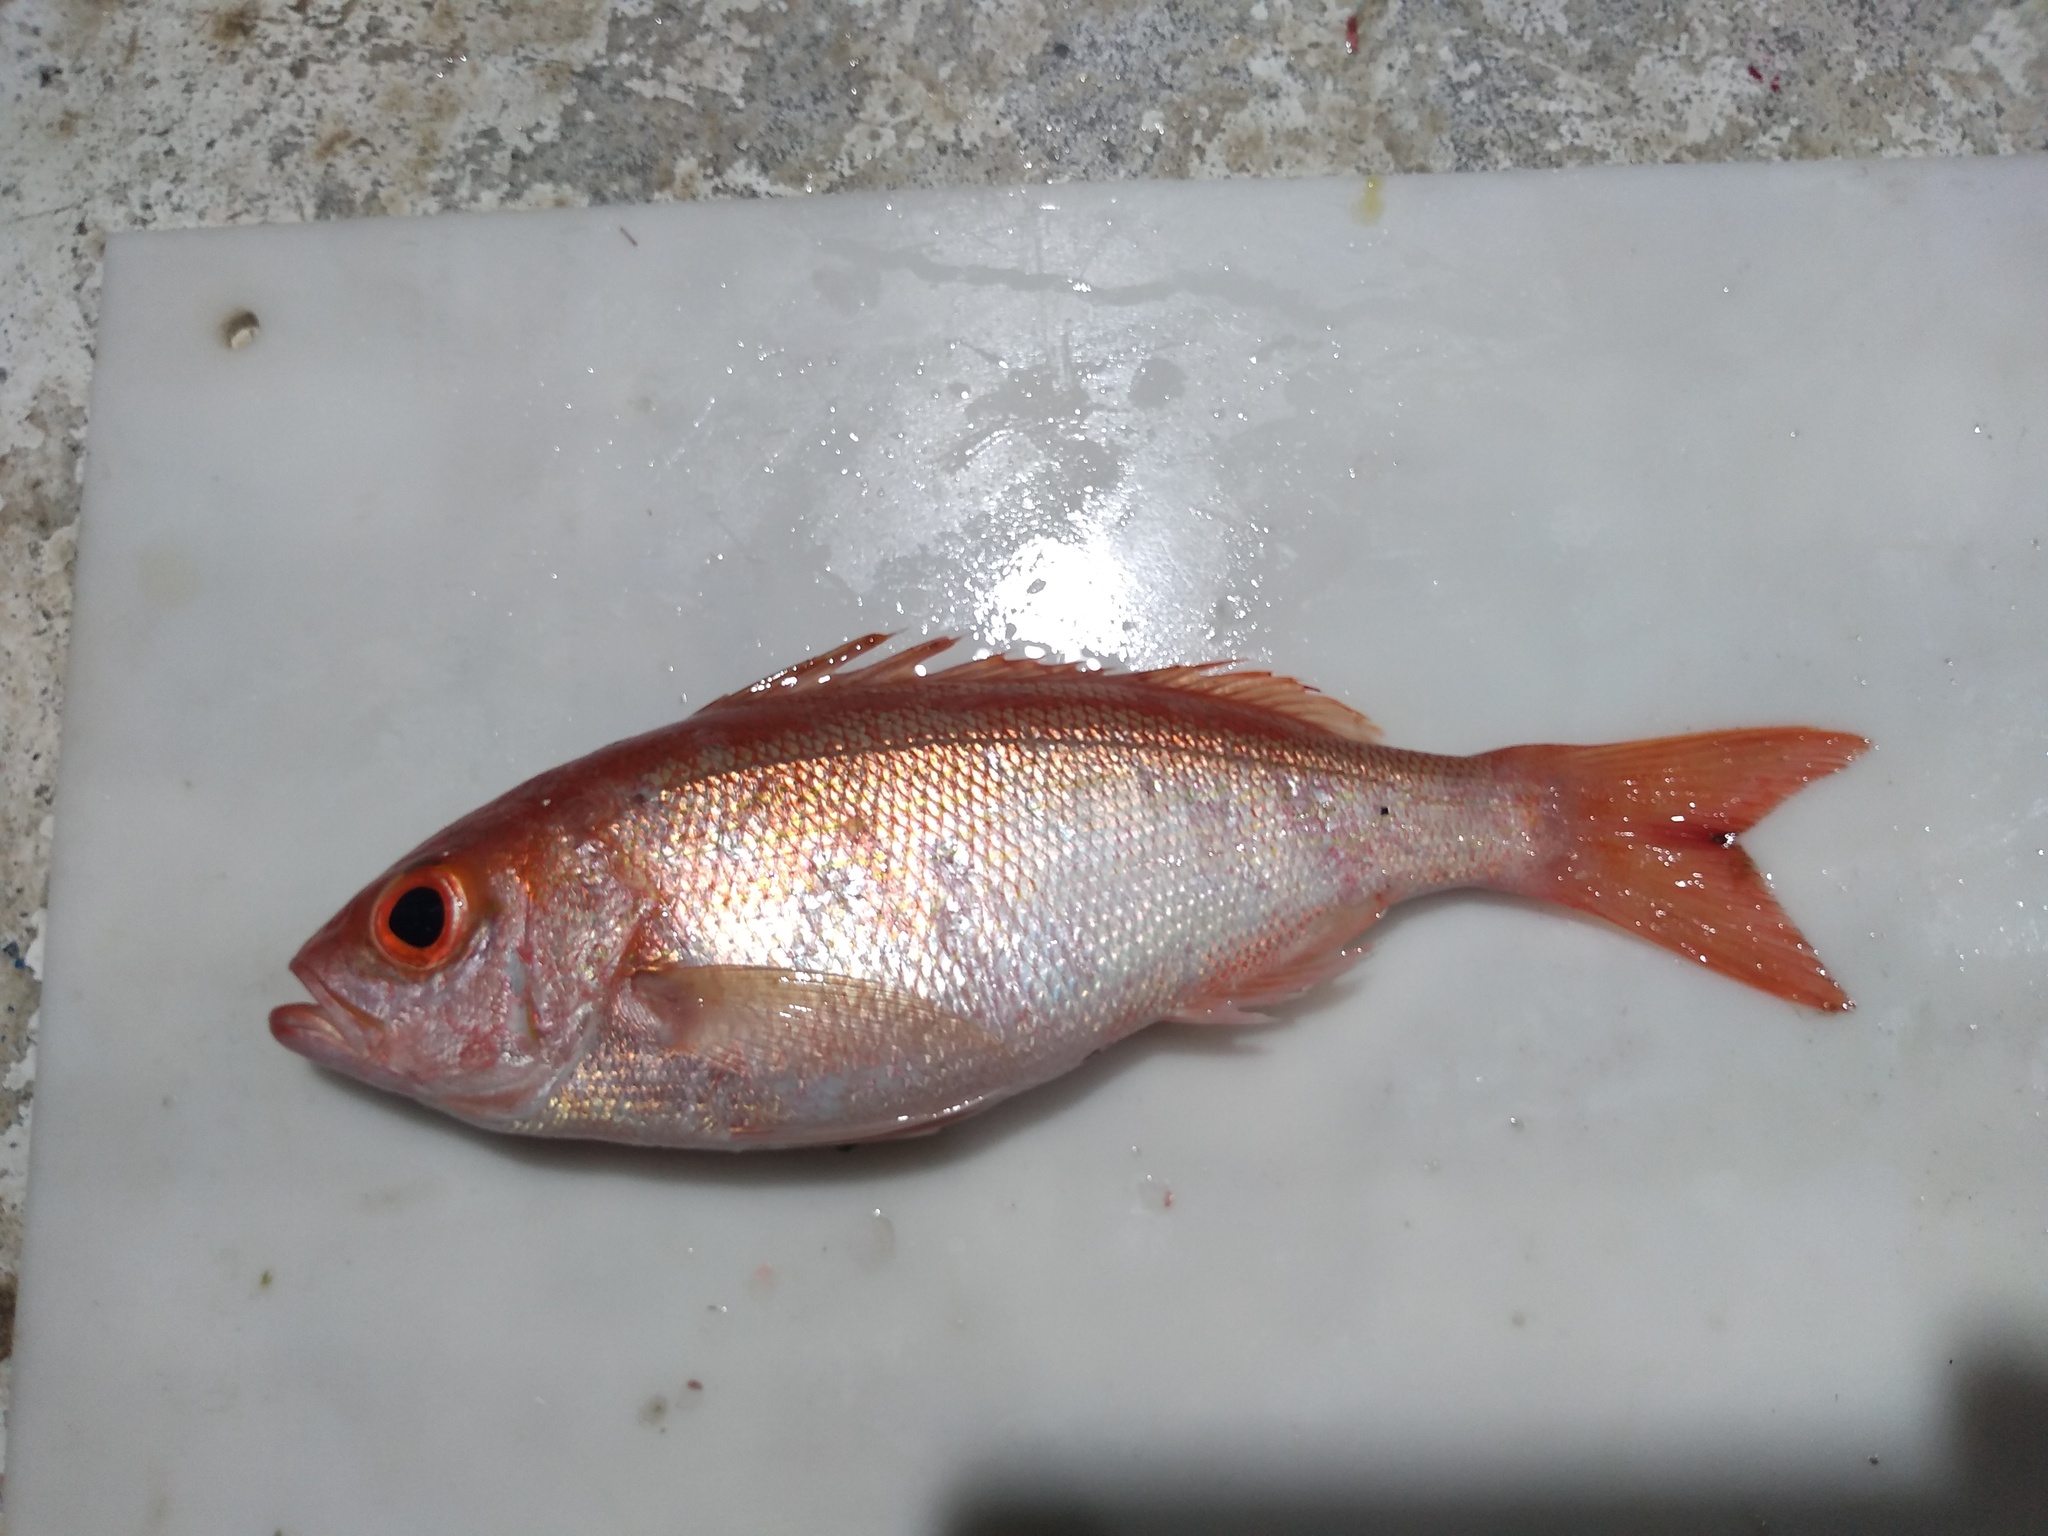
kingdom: Animalia
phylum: Chordata
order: Perciformes
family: Lutjanidae
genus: Rhomboplites
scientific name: Rhomboplites aurorubens
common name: Vermillion snapper
